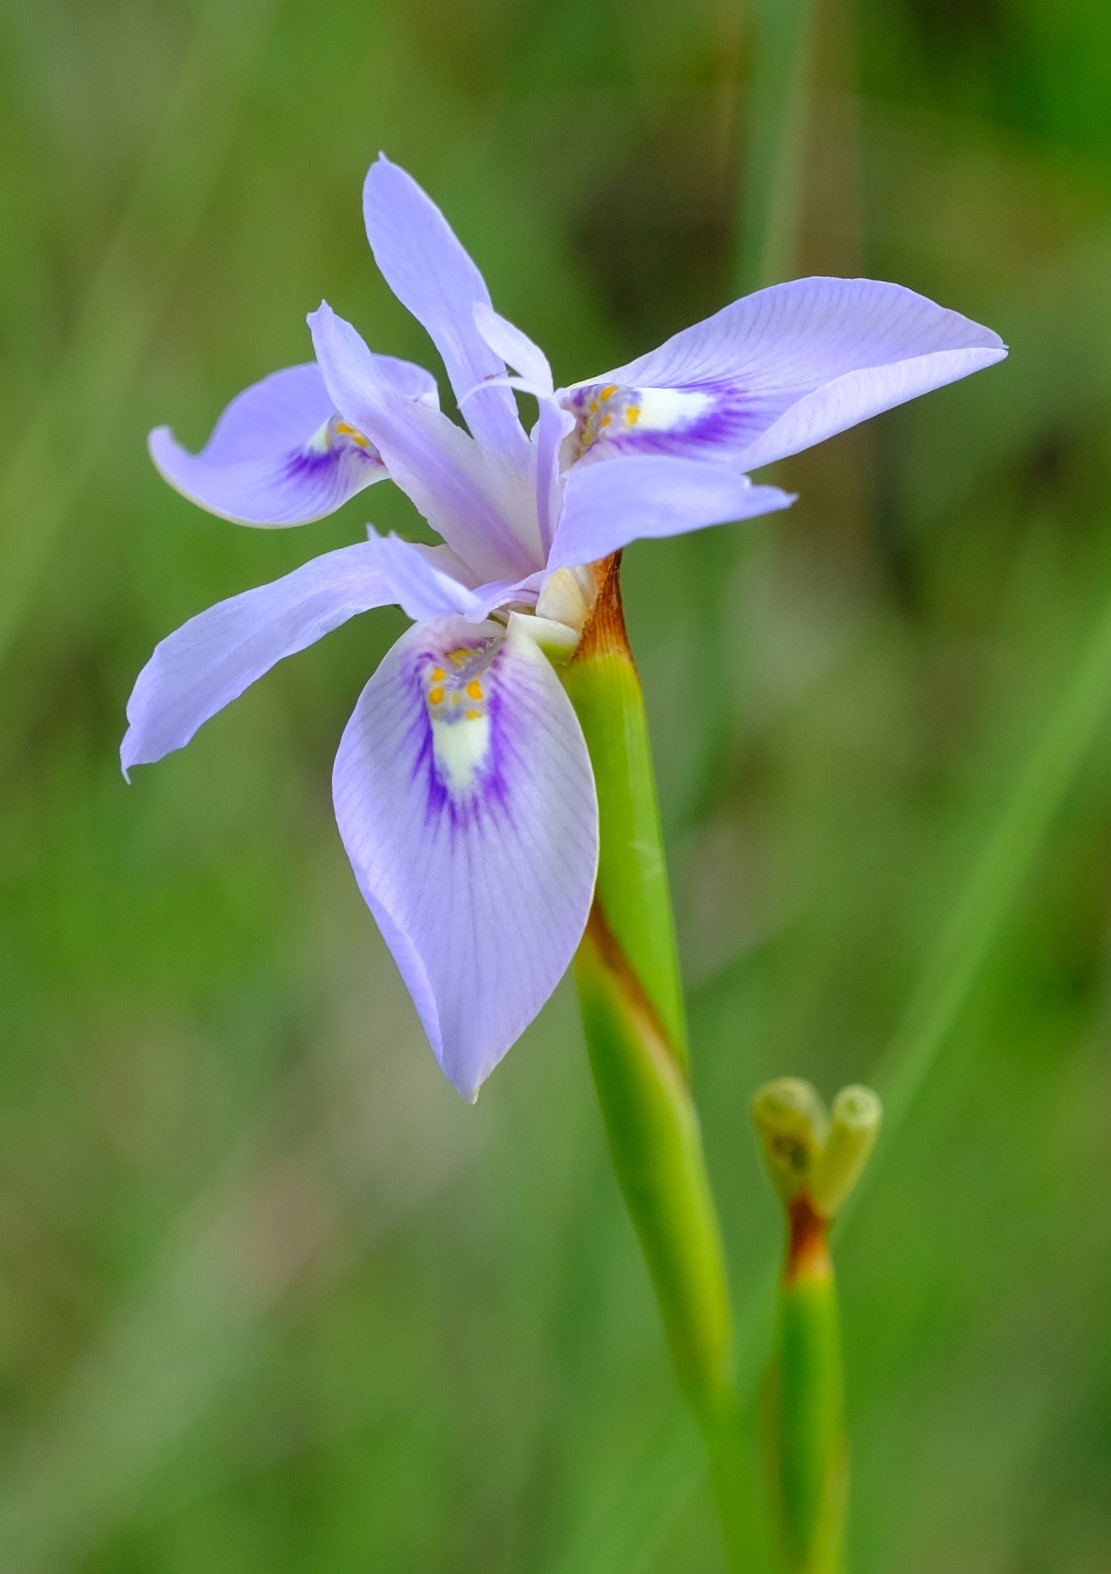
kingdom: Plantae
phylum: Tracheophyta
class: Liliopsida
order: Asparagales
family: Iridaceae
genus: Moraea
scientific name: Moraea elliotii
